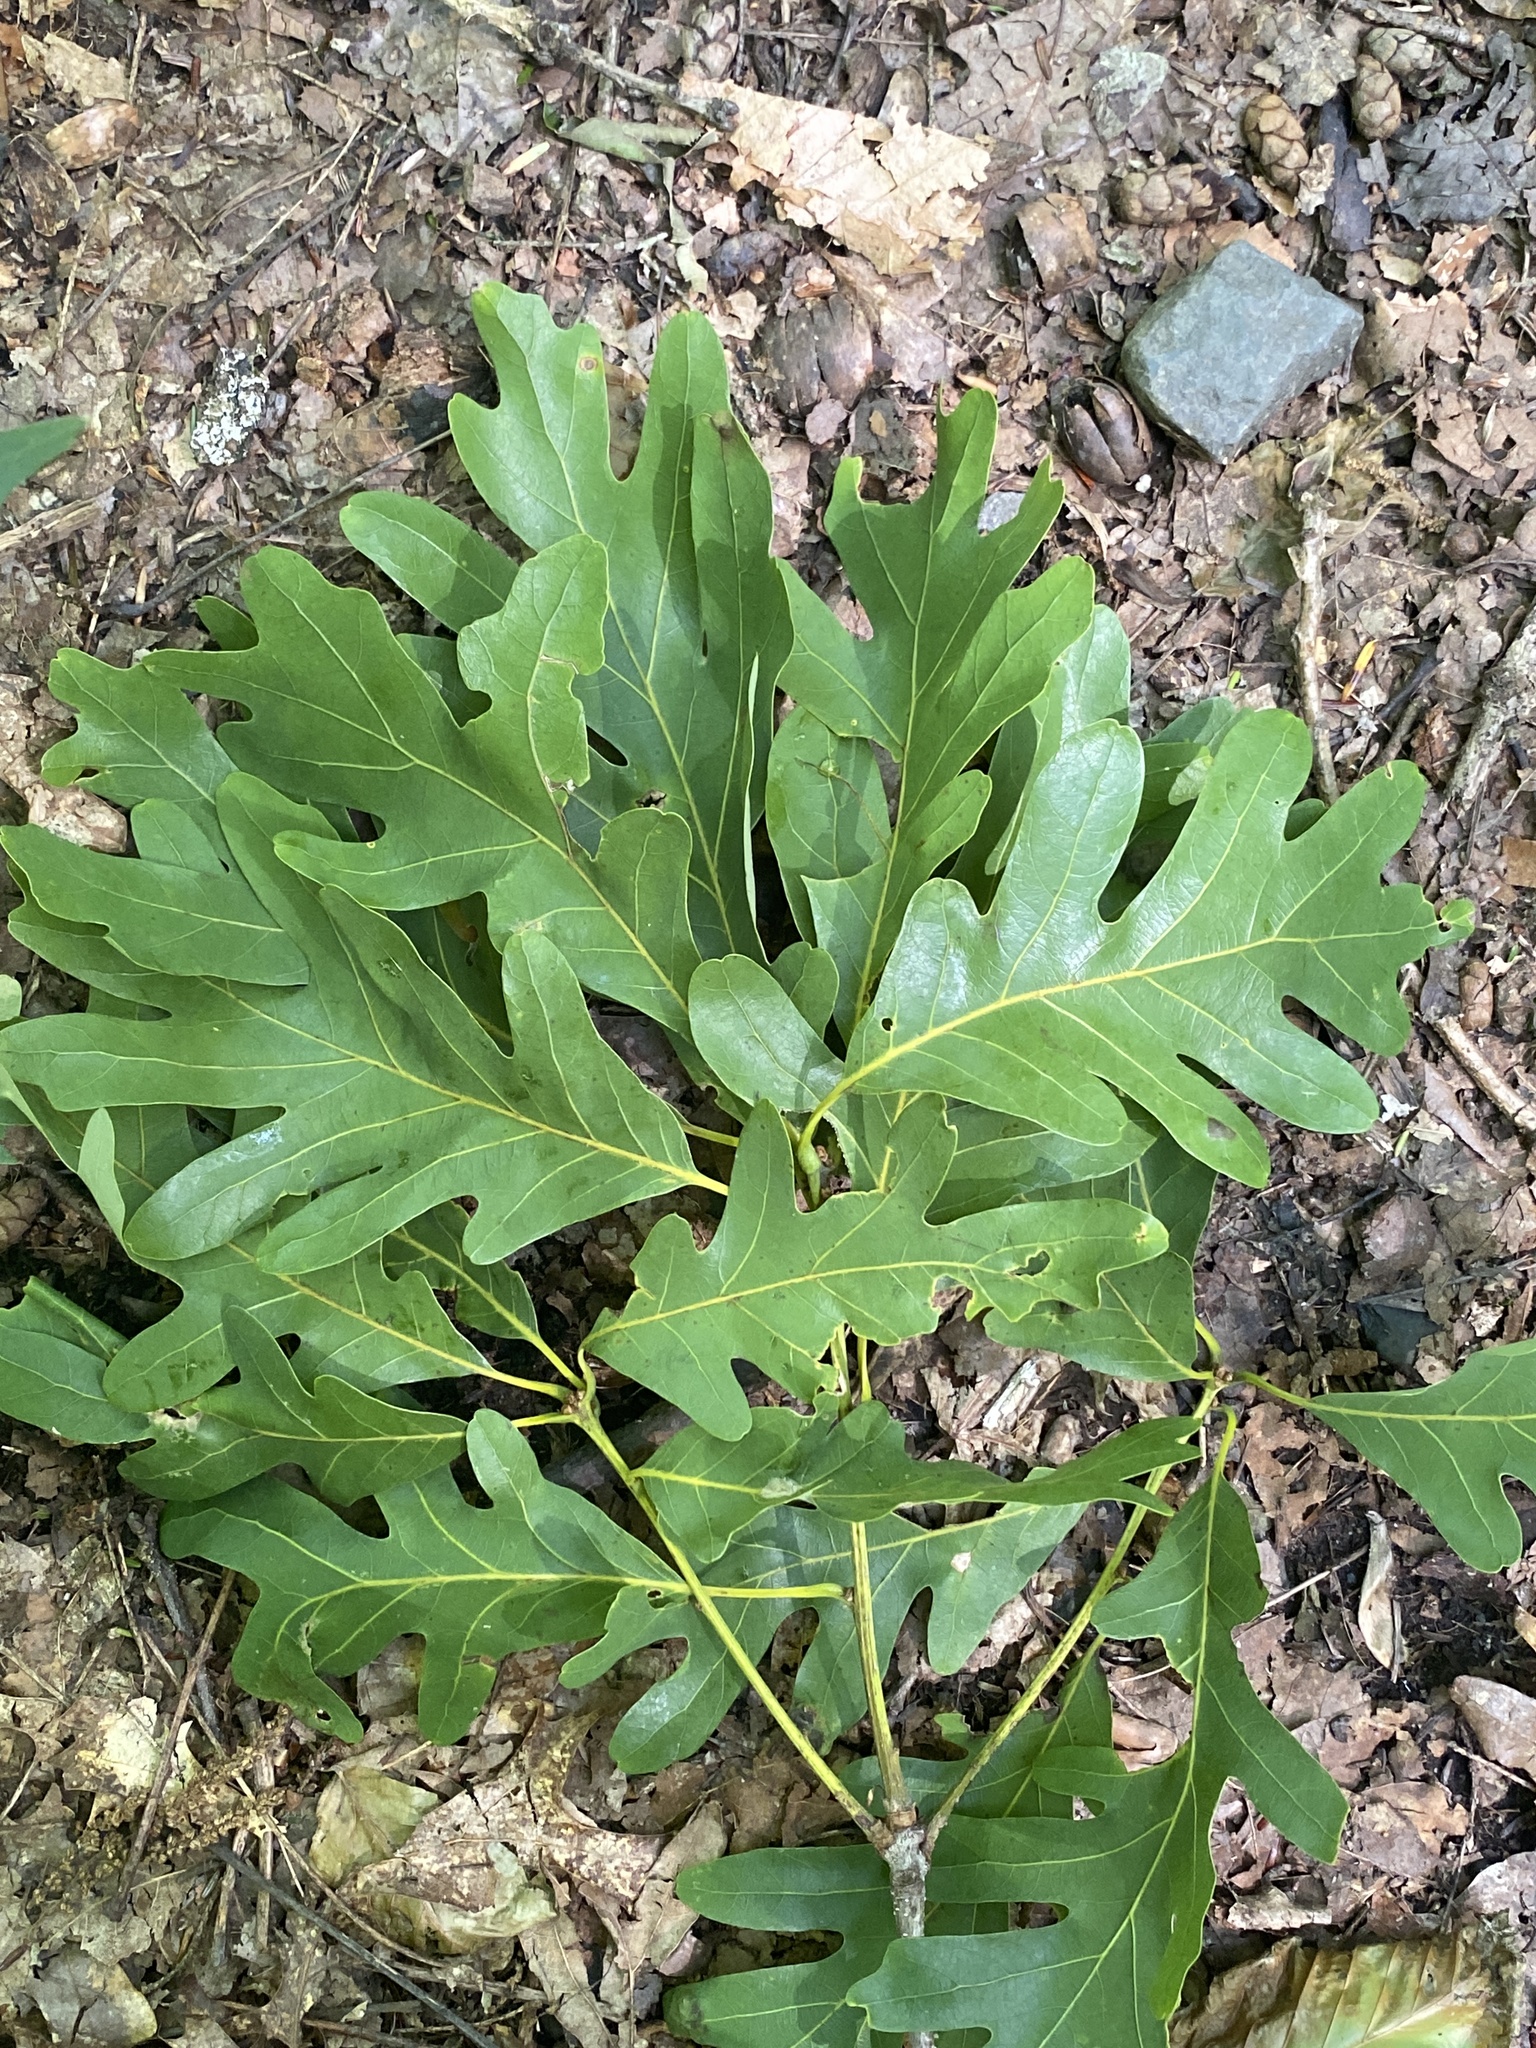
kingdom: Plantae
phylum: Tracheophyta
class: Magnoliopsida
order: Fagales
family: Fagaceae
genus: Quercus
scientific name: Quercus alba
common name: White oak
